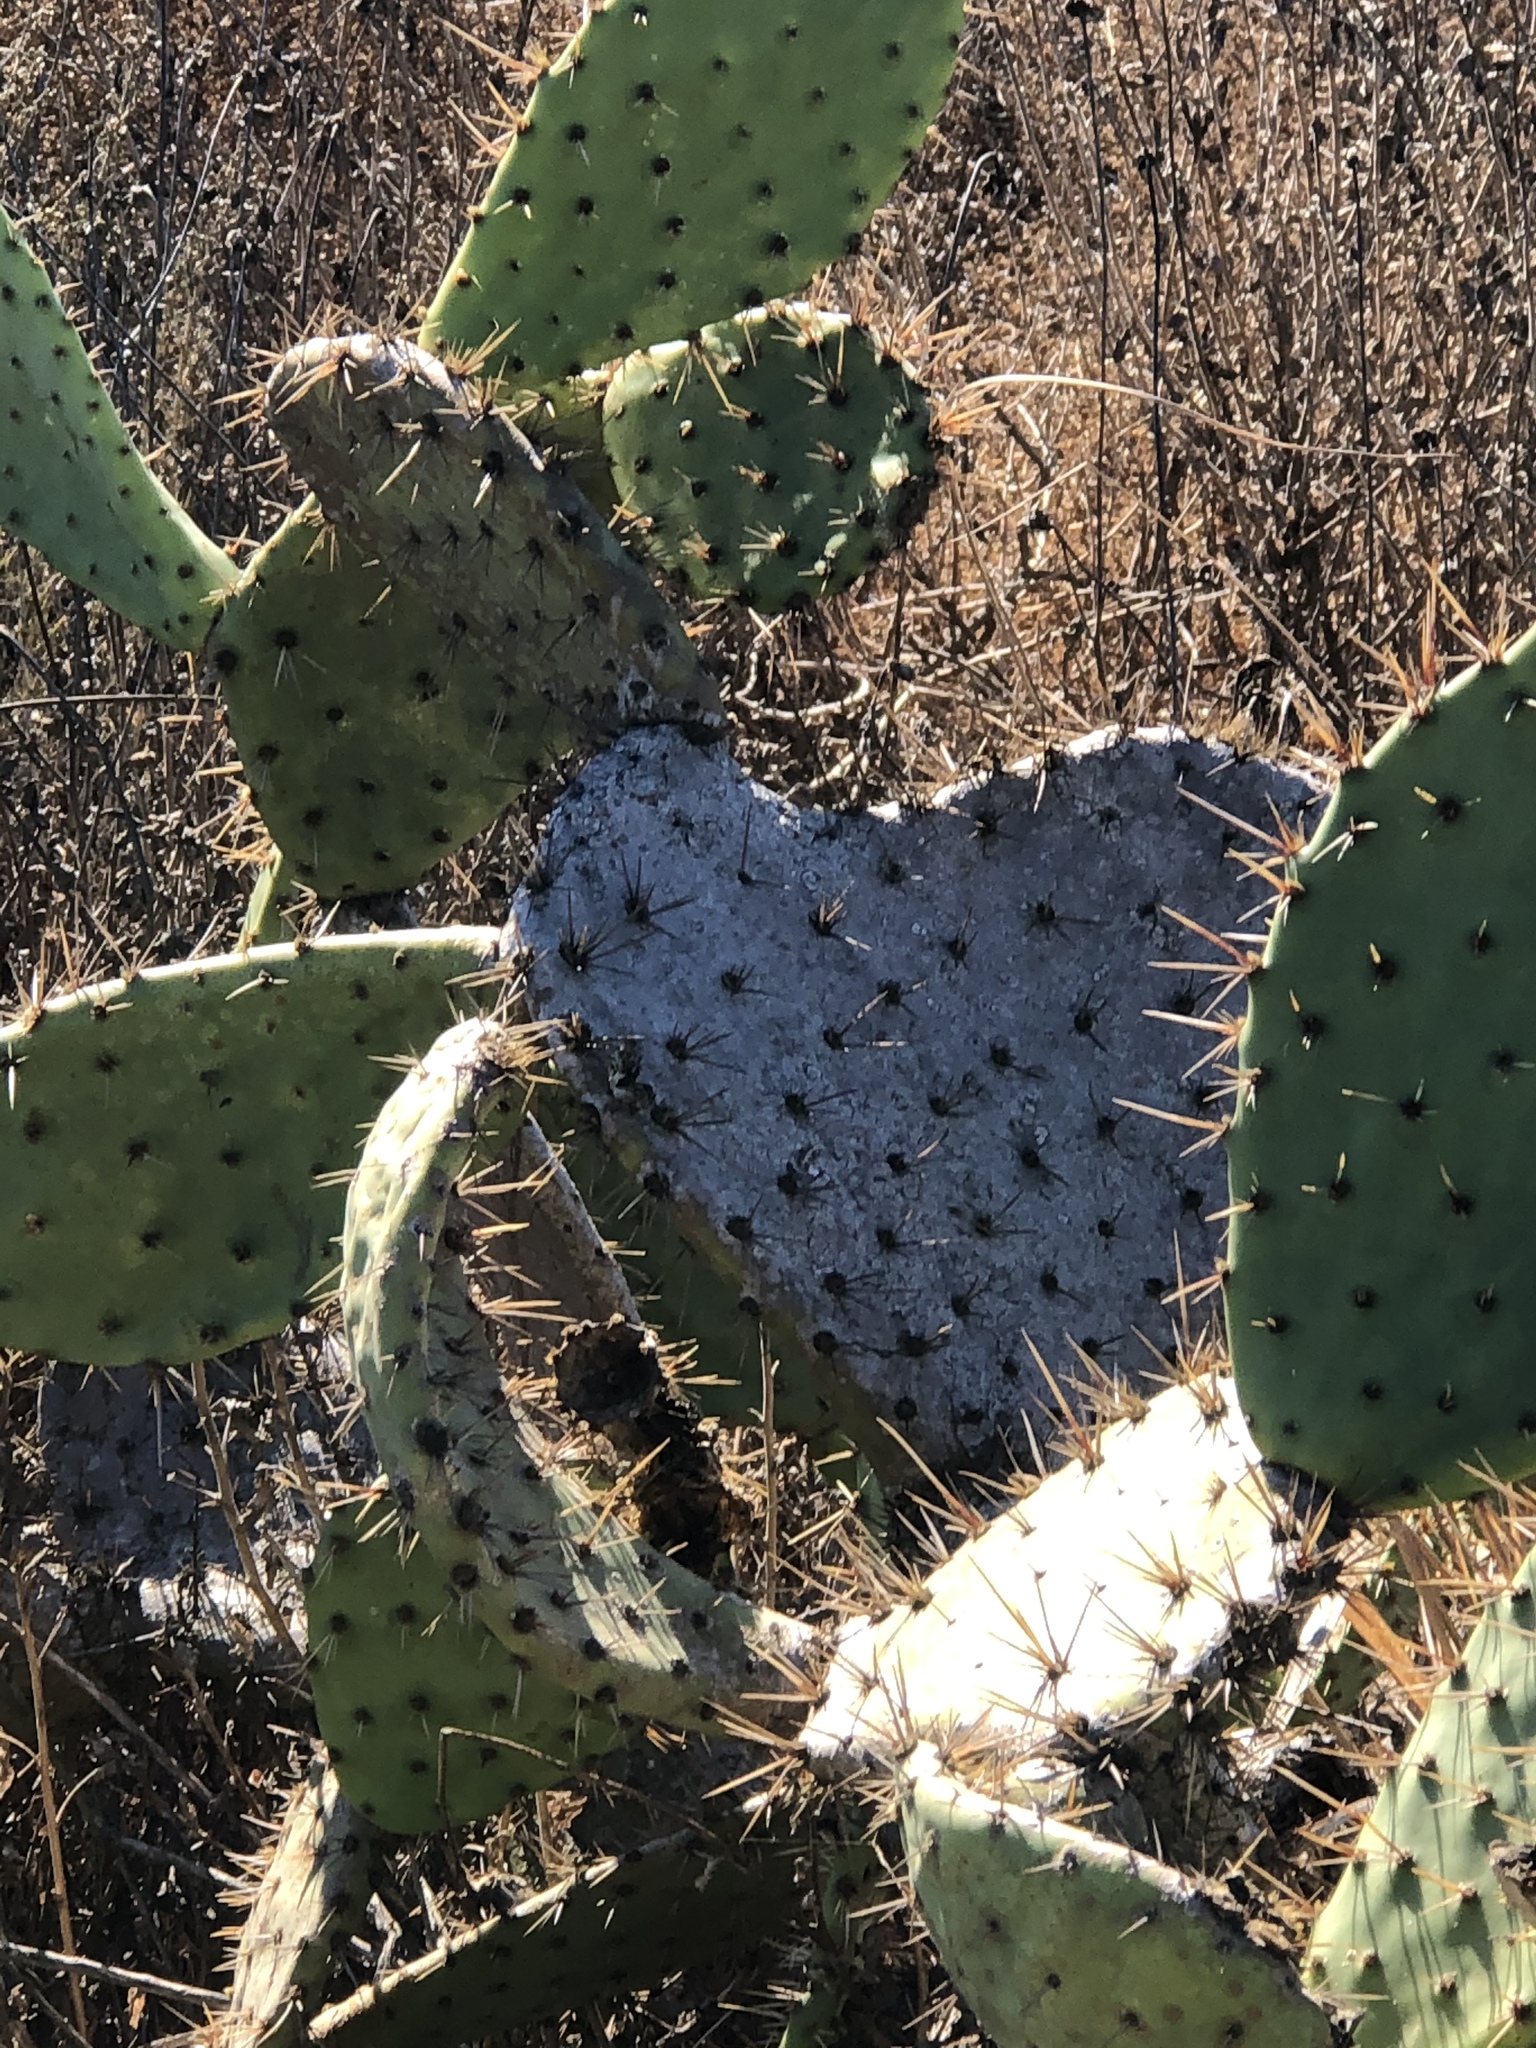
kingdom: Plantae
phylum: Tracheophyta
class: Magnoliopsida
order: Caryophyllales
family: Cactaceae
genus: Opuntia
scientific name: Opuntia littoralis
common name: Coastal prickly-pear
